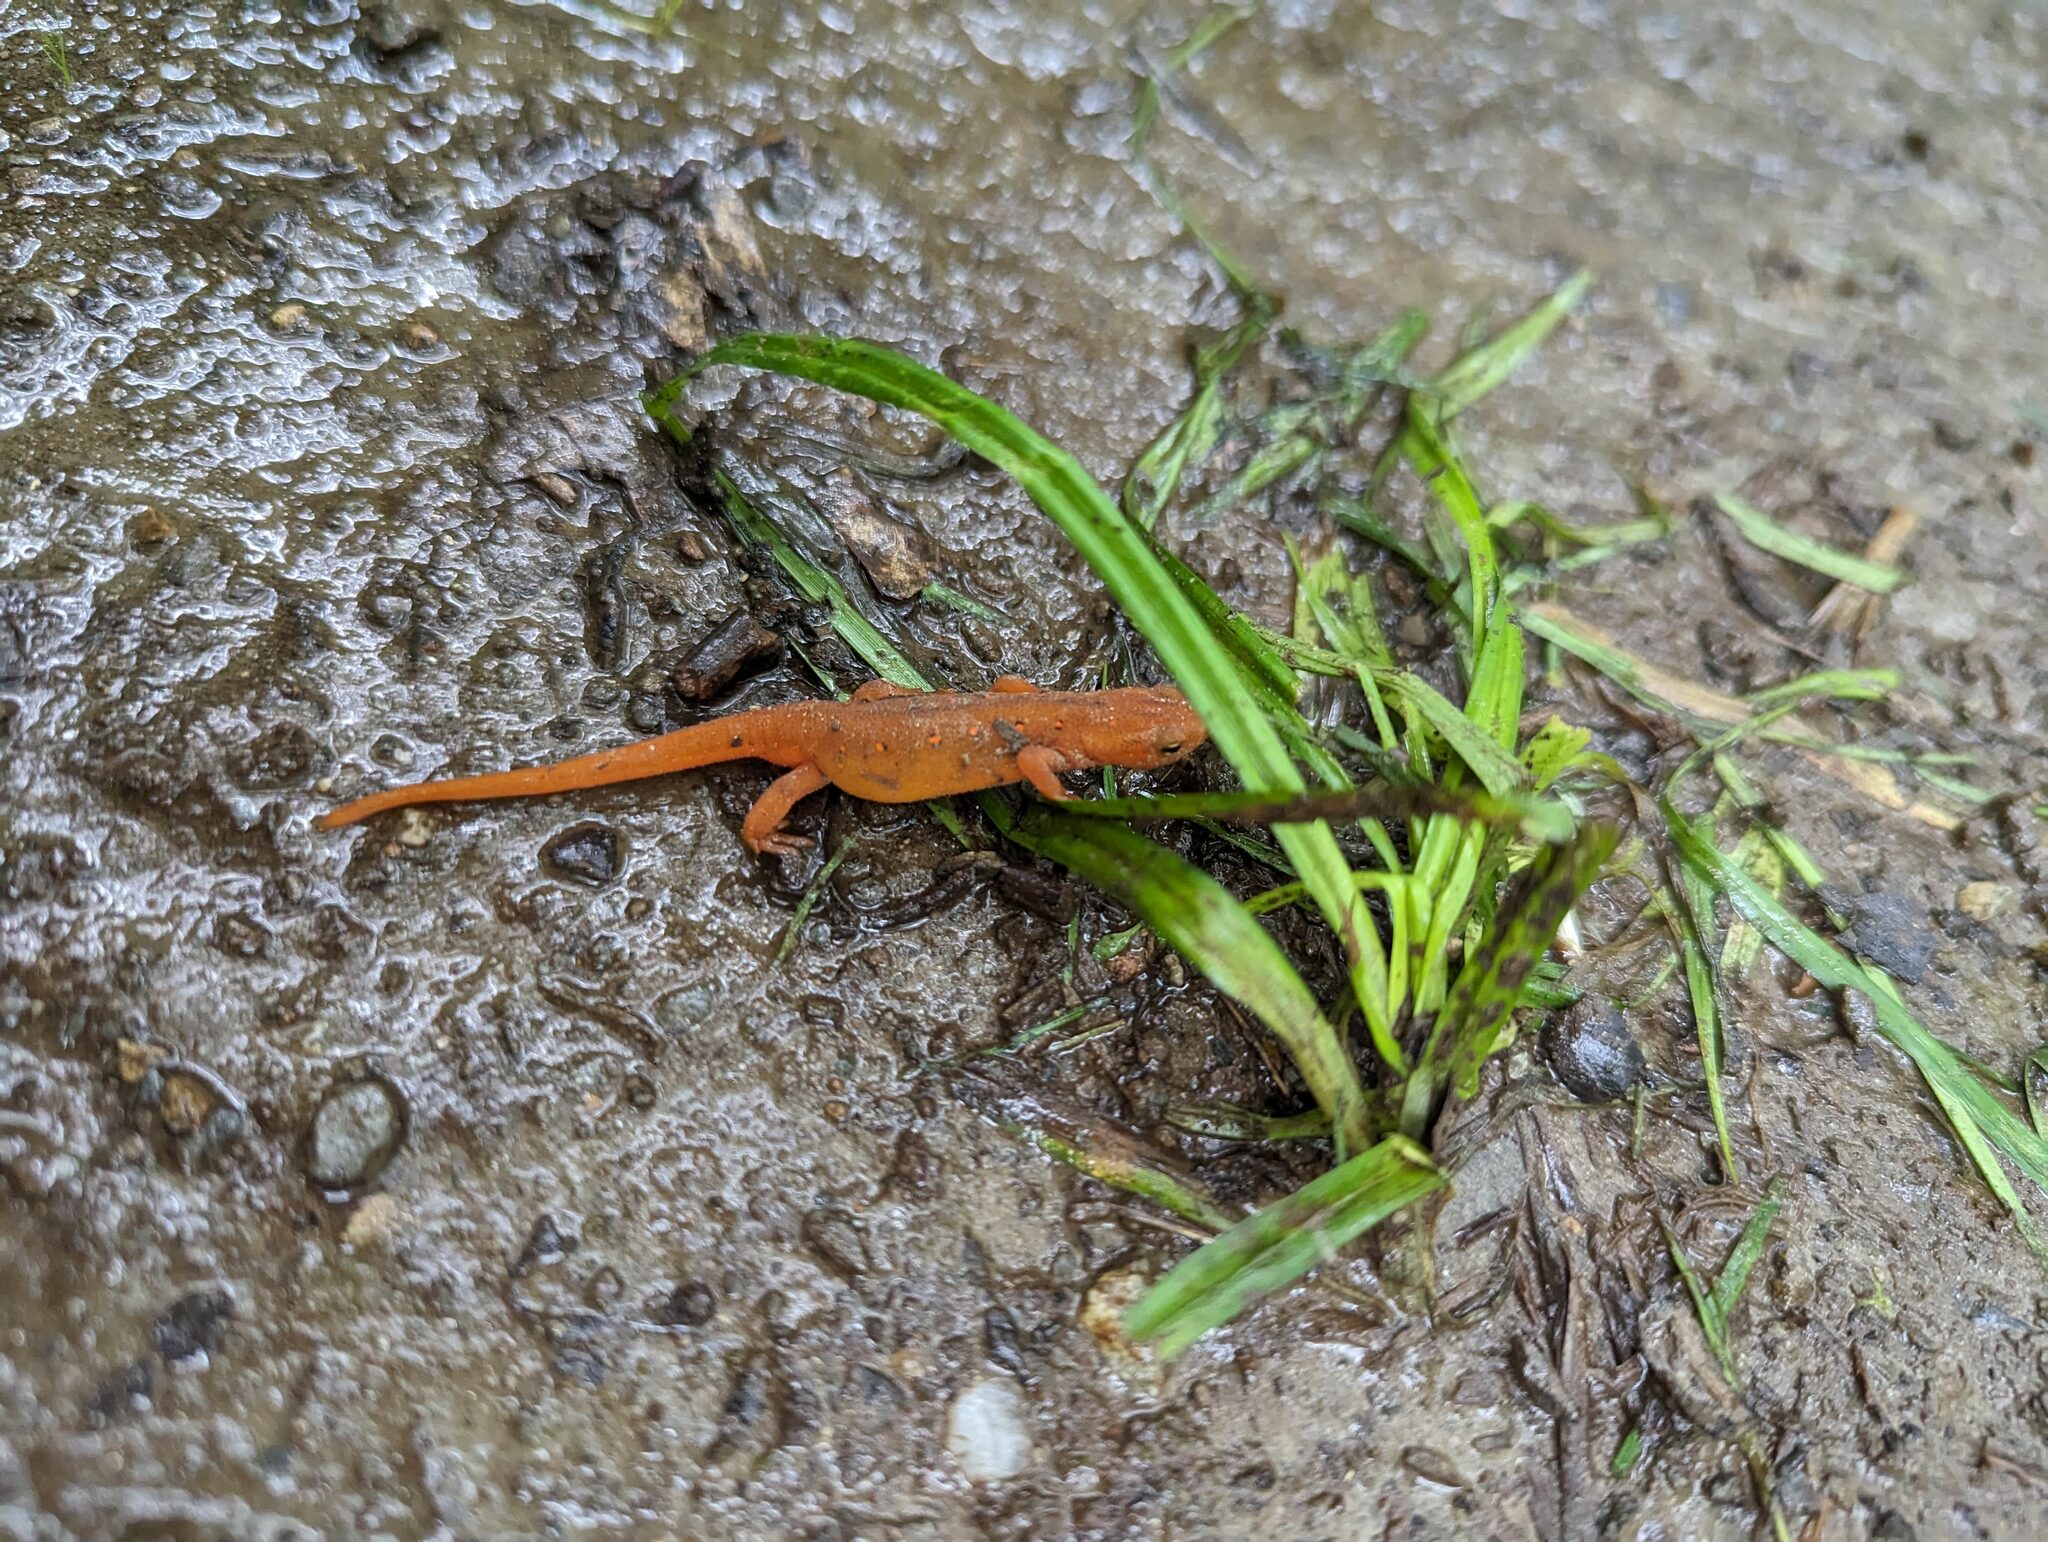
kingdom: Animalia
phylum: Chordata
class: Amphibia
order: Caudata
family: Salamandridae
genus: Notophthalmus
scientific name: Notophthalmus viridescens
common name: Eastern newt
